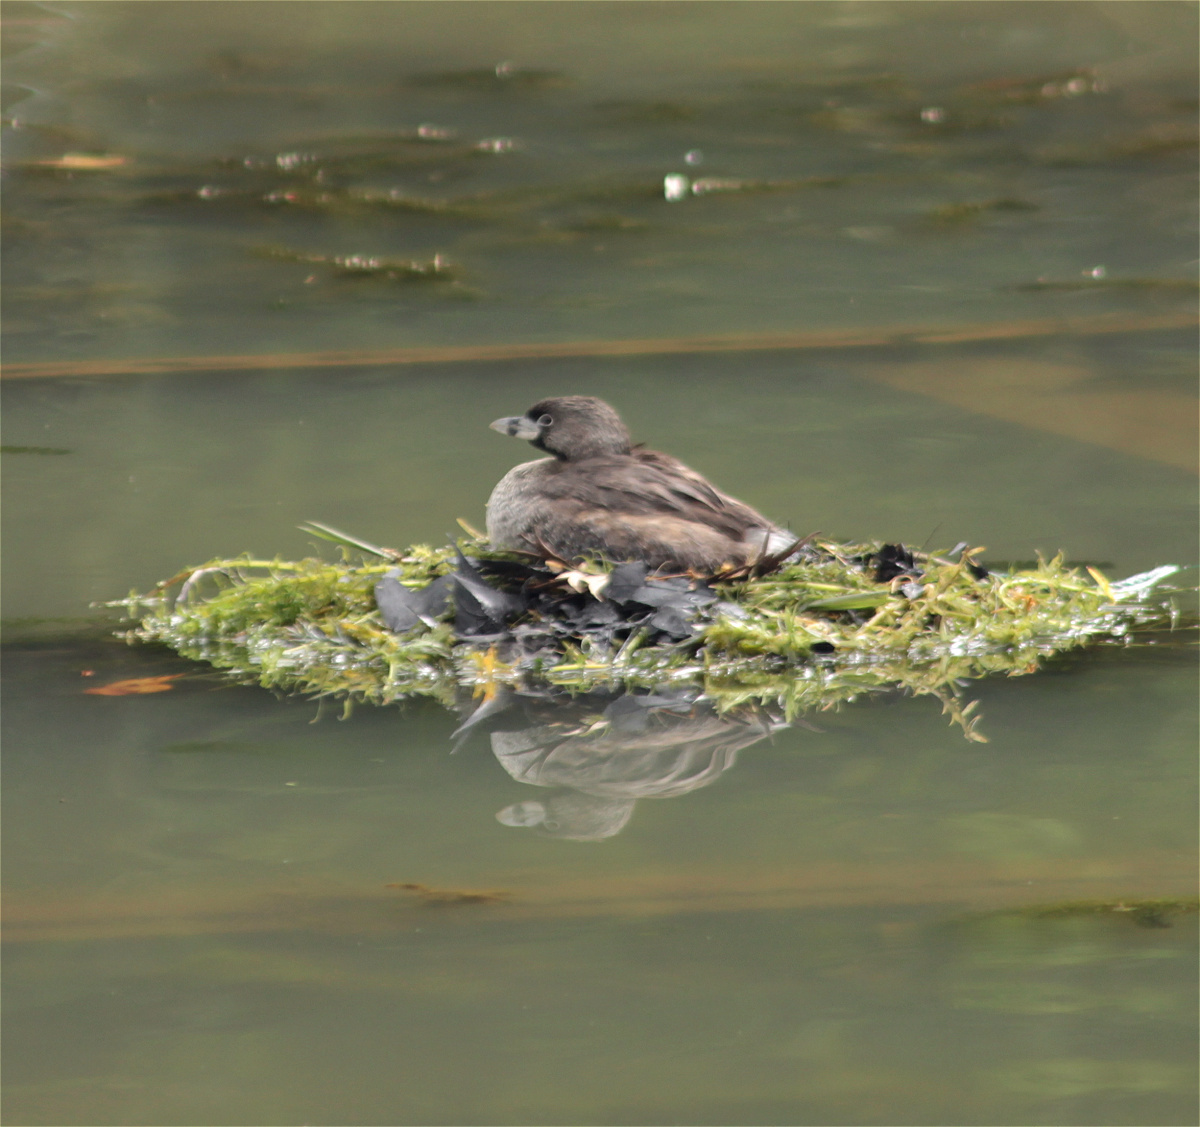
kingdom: Animalia
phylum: Chordata
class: Aves
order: Podicipediformes
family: Podicipedidae
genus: Podilymbus
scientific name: Podilymbus podiceps
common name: Pied-billed grebe
